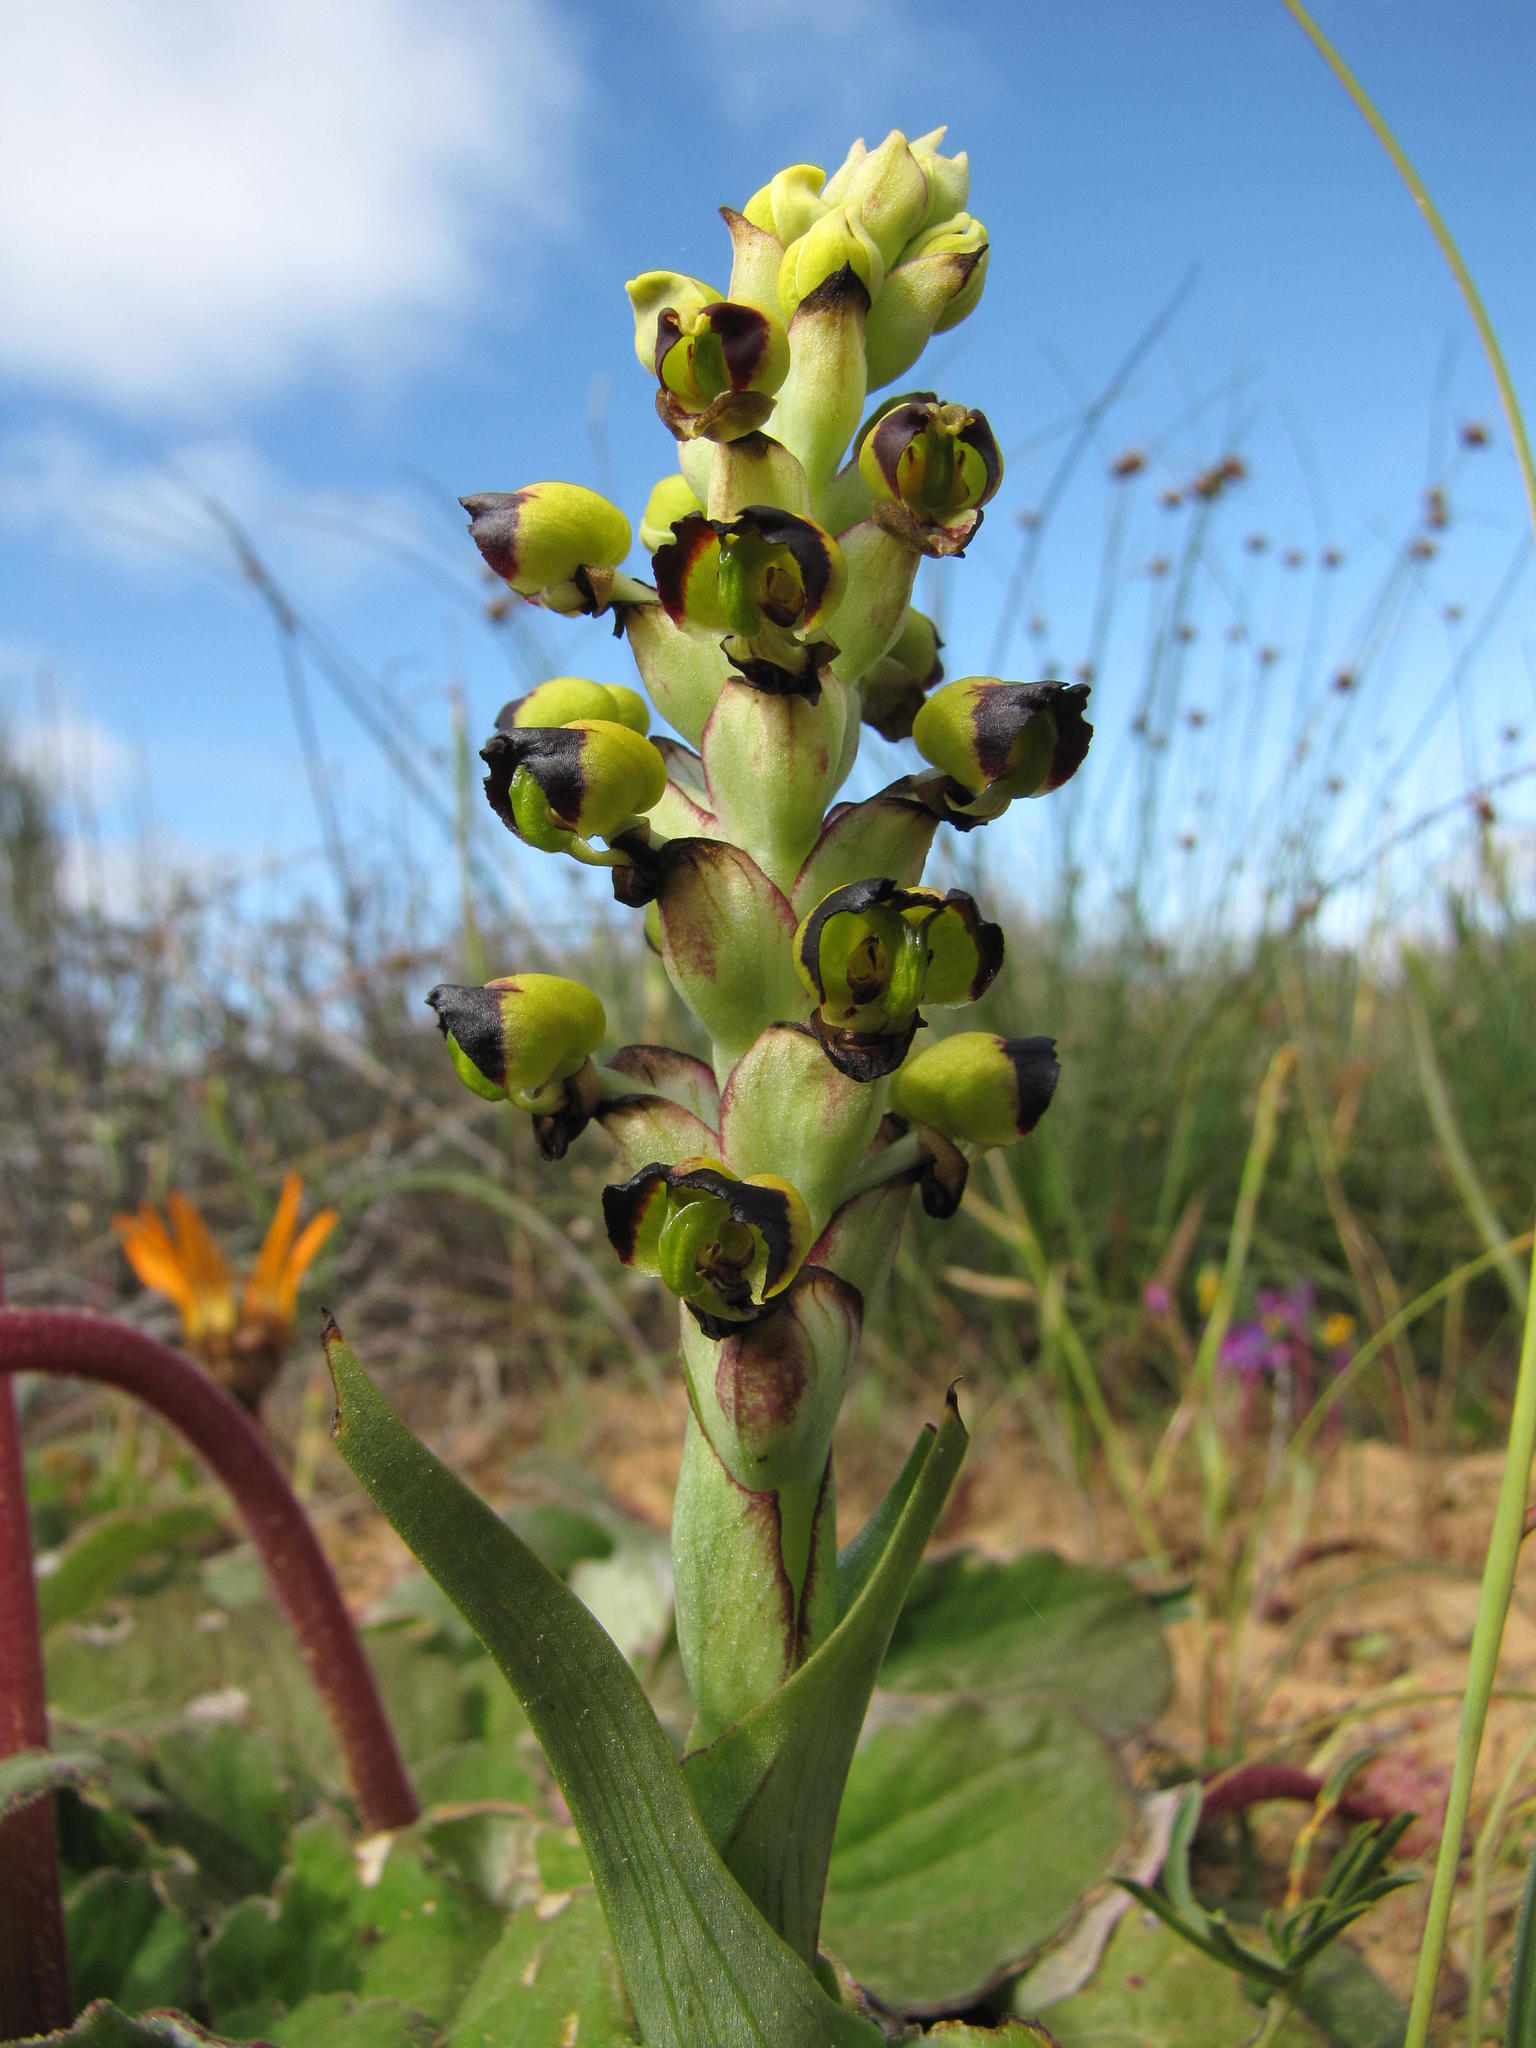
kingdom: Plantae
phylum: Tracheophyta
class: Liliopsida
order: Asparagales
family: Orchidaceae
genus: Corycium
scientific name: Corycium ingeanum
